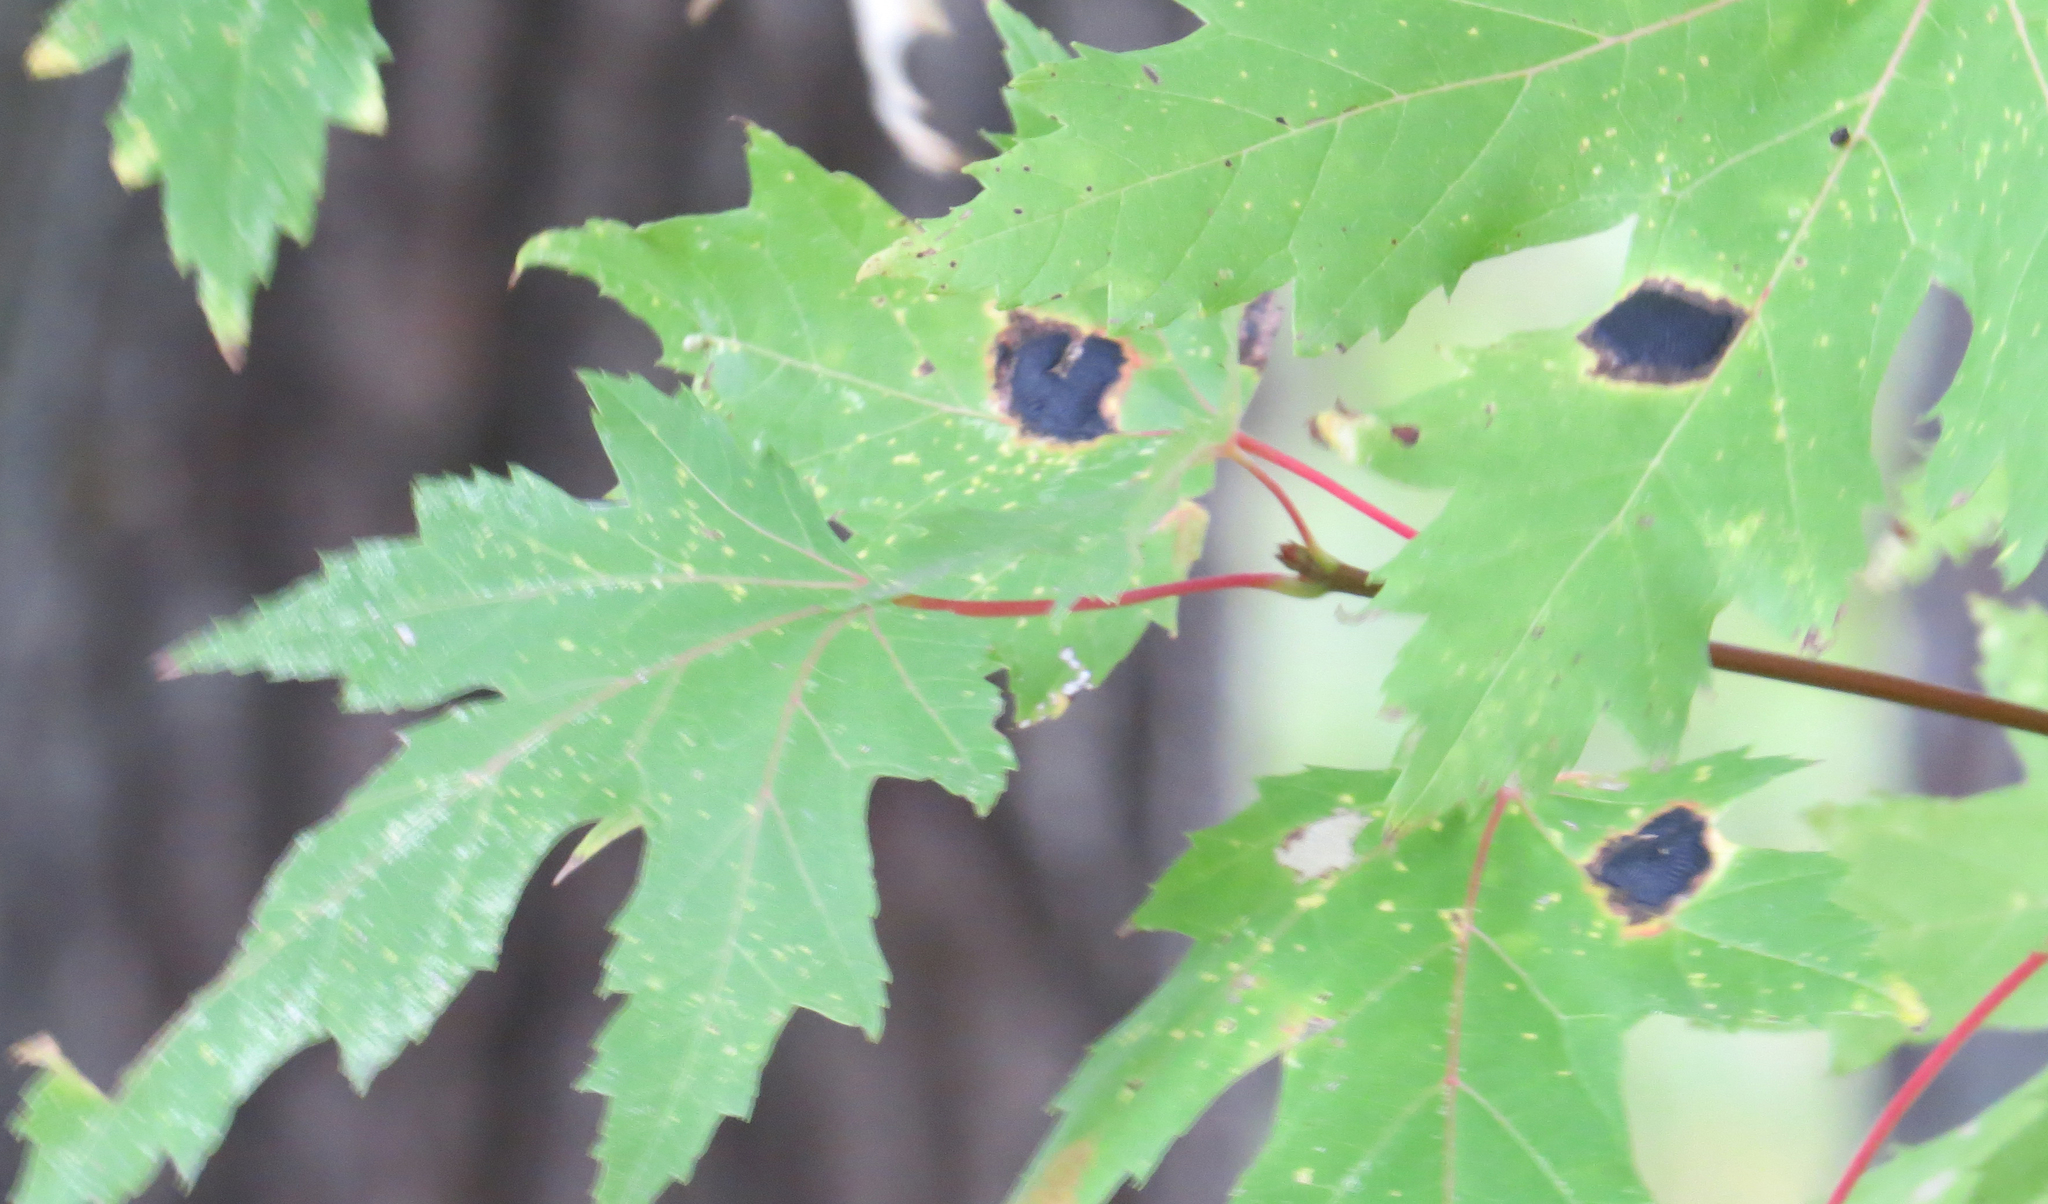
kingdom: Fungi
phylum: Ascomycota
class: Leotiomycetes
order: Rhytismatales
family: Rhytismataceae
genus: Rhytisma
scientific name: Rhytisma americanum
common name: American tar spot
